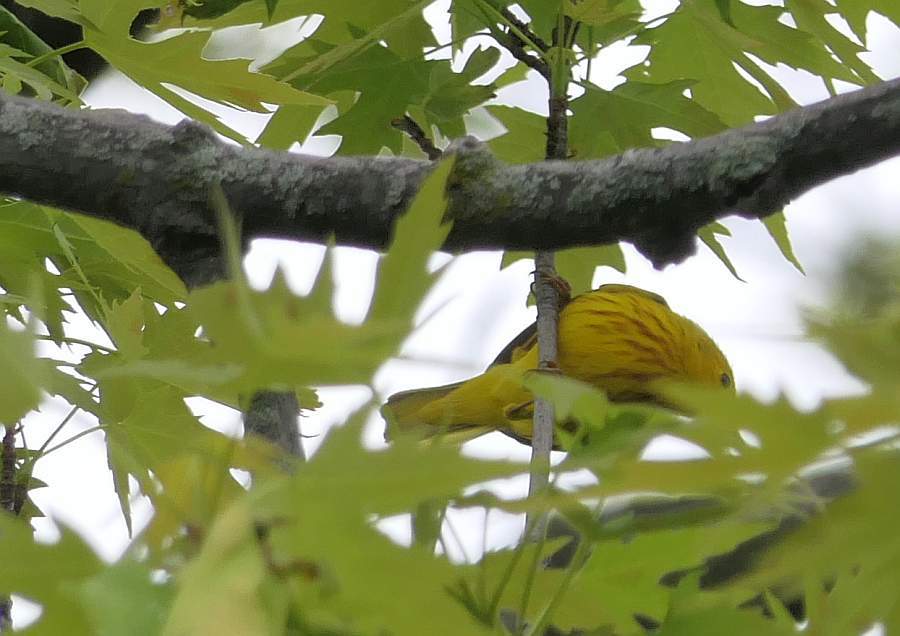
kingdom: Animalia
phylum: Chordata
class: Aves
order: Passeriformes
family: Parulidae
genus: Setophaga
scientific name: Setophaga petechia
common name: Yellow warbler
